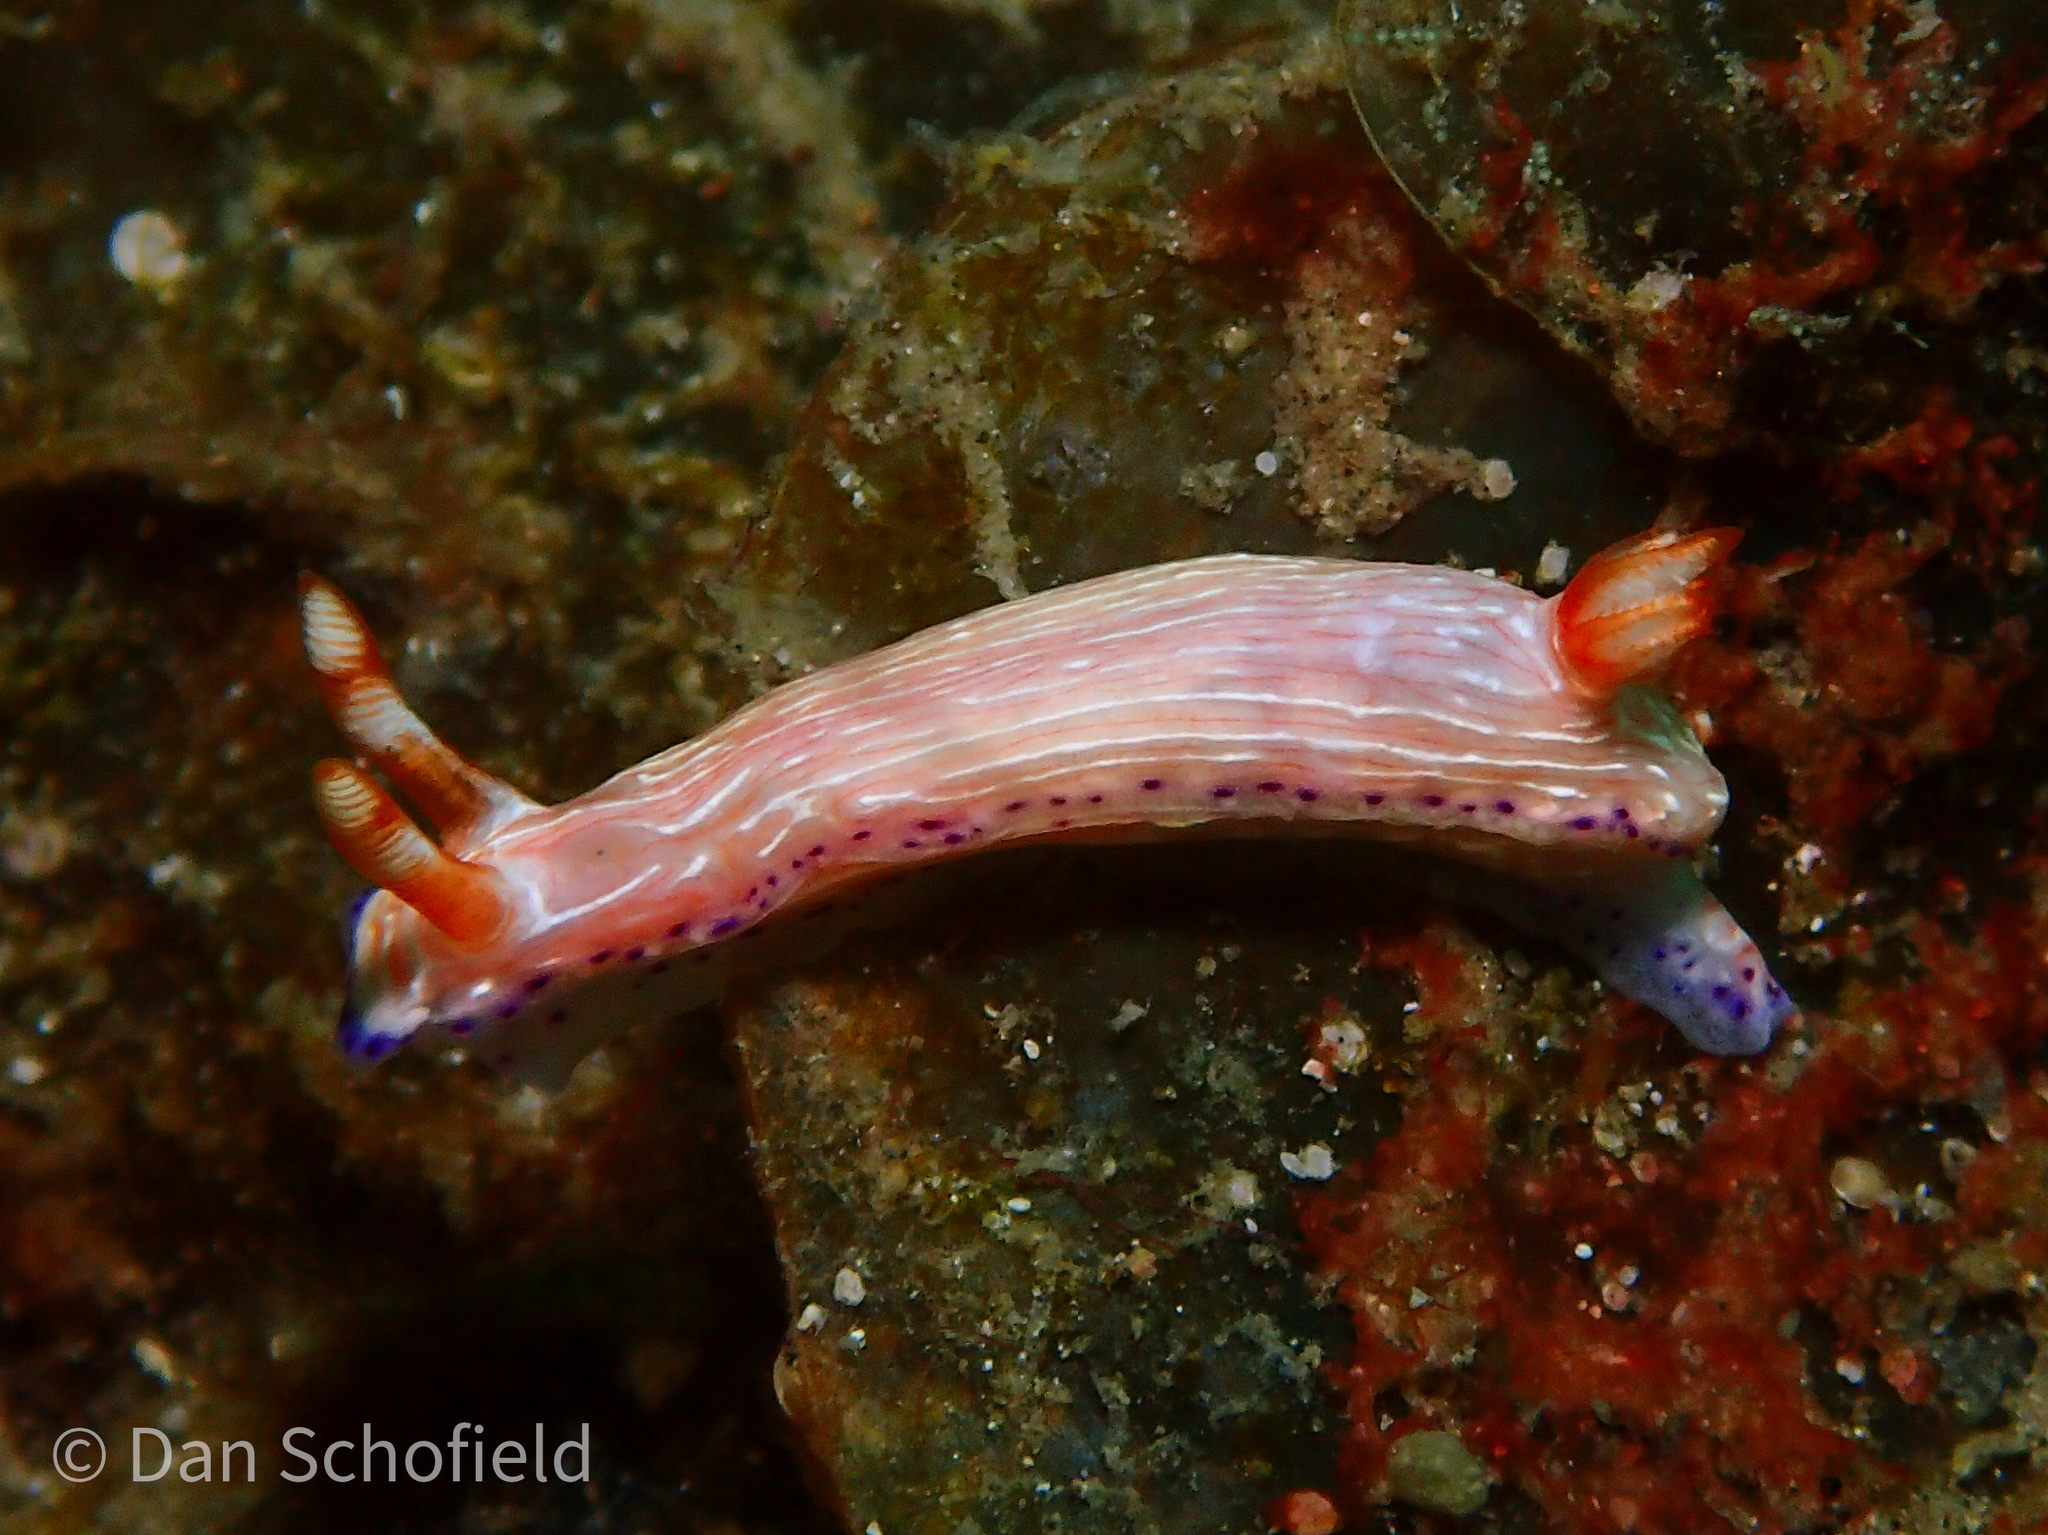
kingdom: Animalia
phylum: Mollusca
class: Gastropoda
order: Nudibranchia
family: Chromodorididae
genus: Hypselodoris
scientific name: Hypselodoris katherinae
